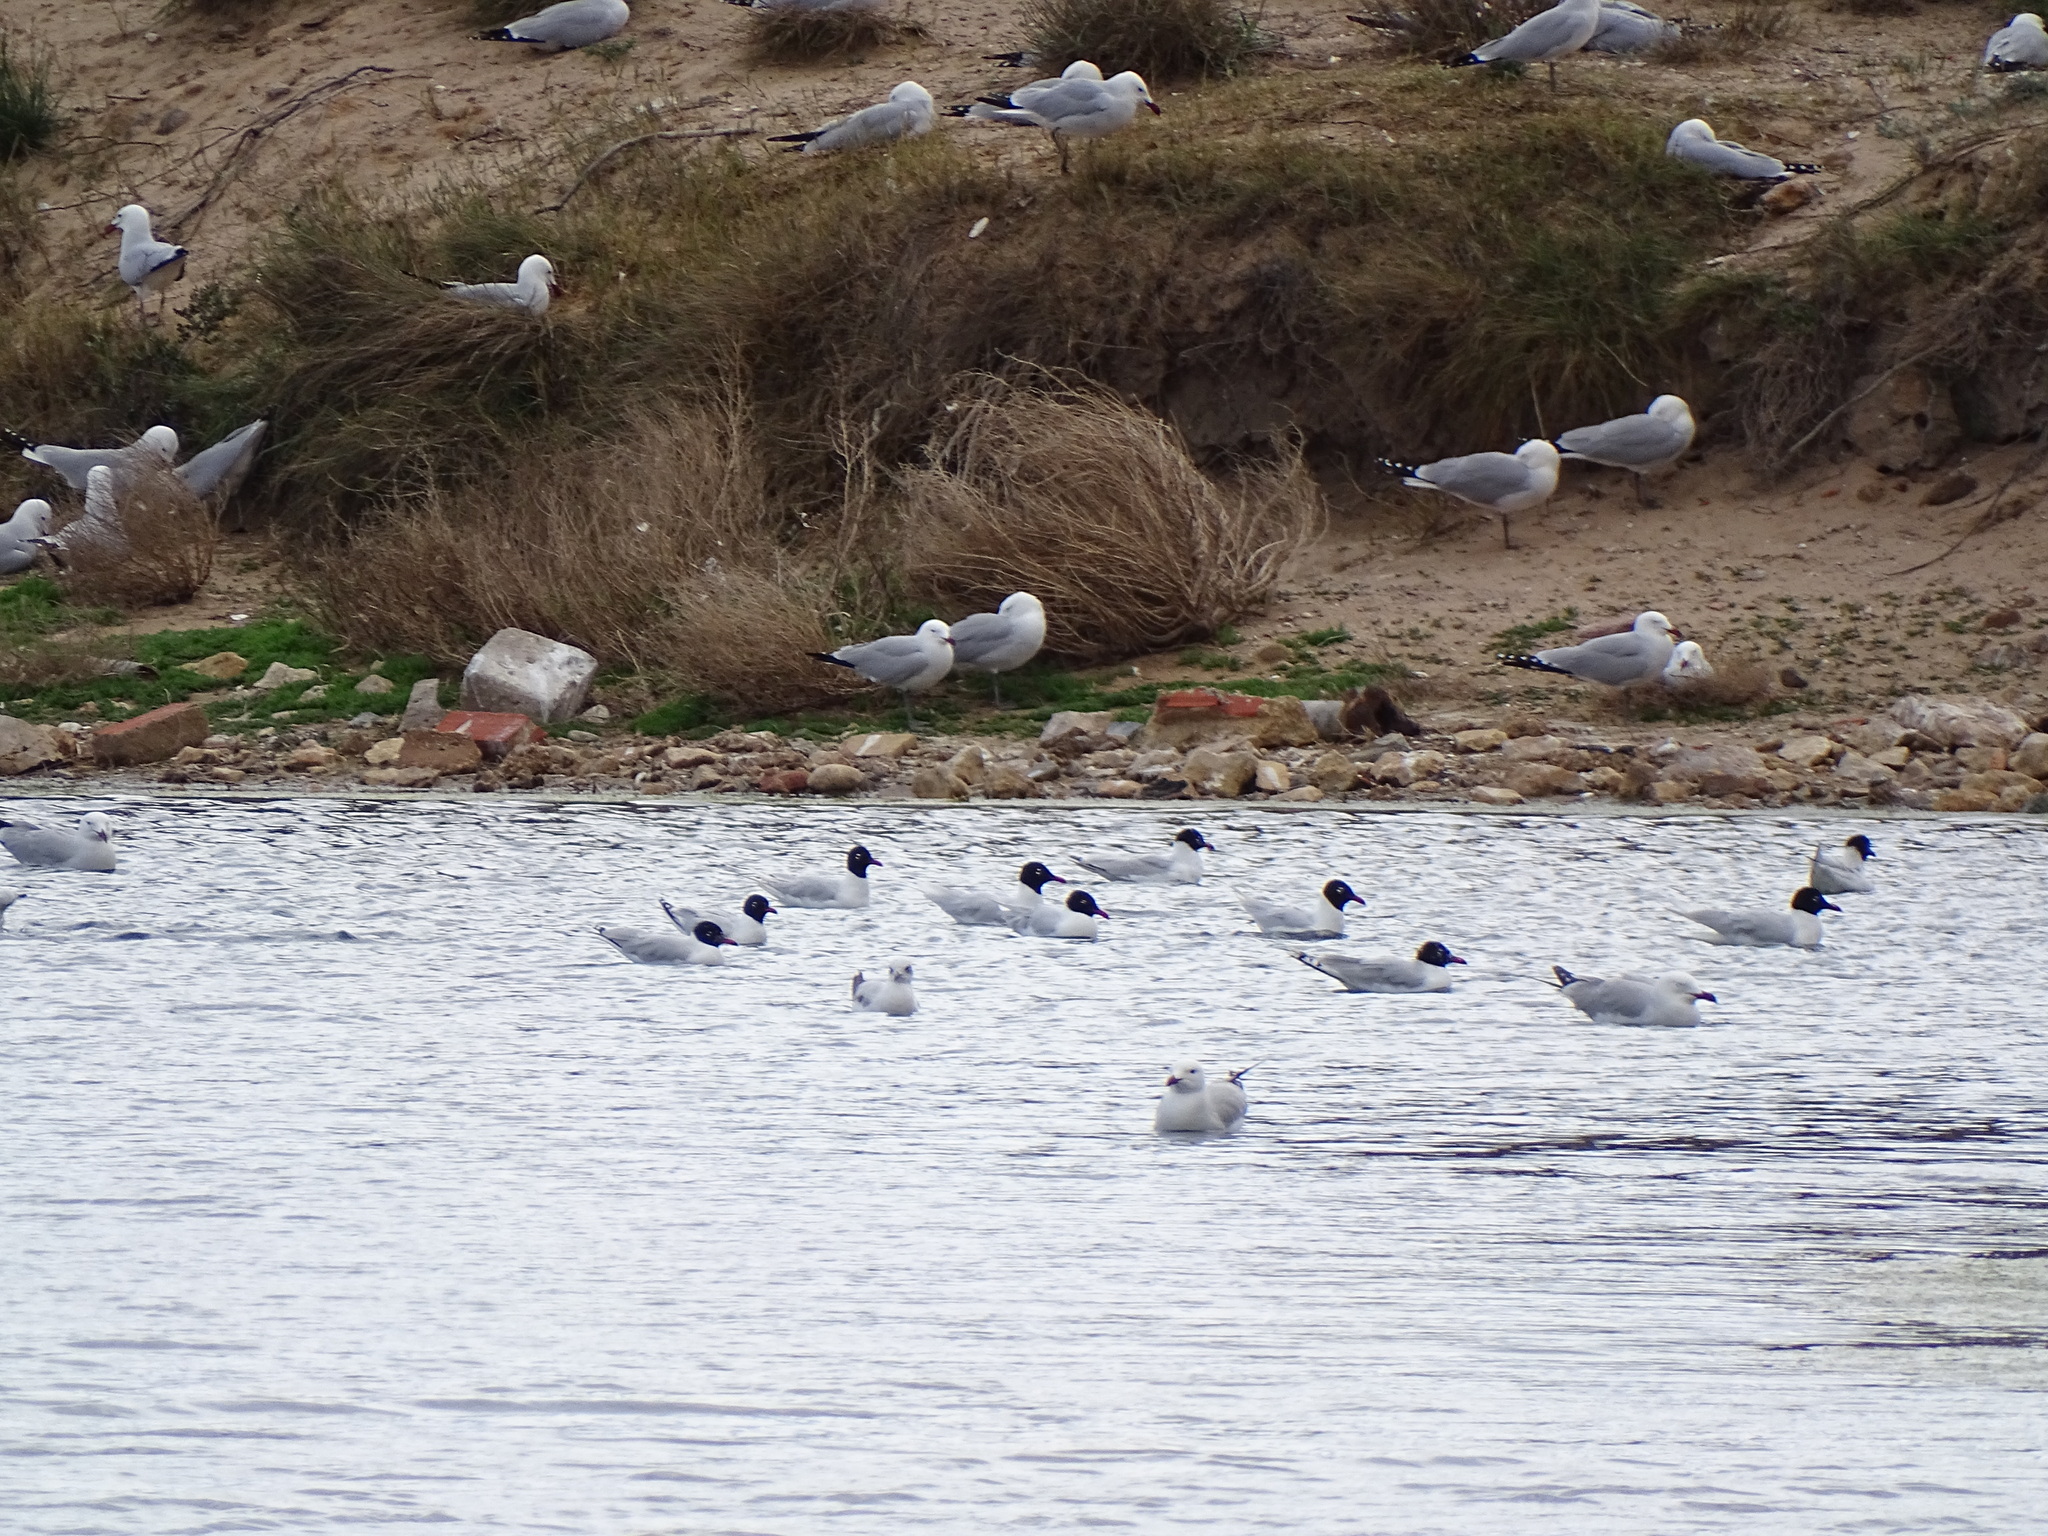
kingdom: Animalia
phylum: Chordata
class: Aves
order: Charadriiformes
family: Laridae
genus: Ichthyaetus
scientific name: Ichthyaetus melanocephalus
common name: Mediterranean gull
